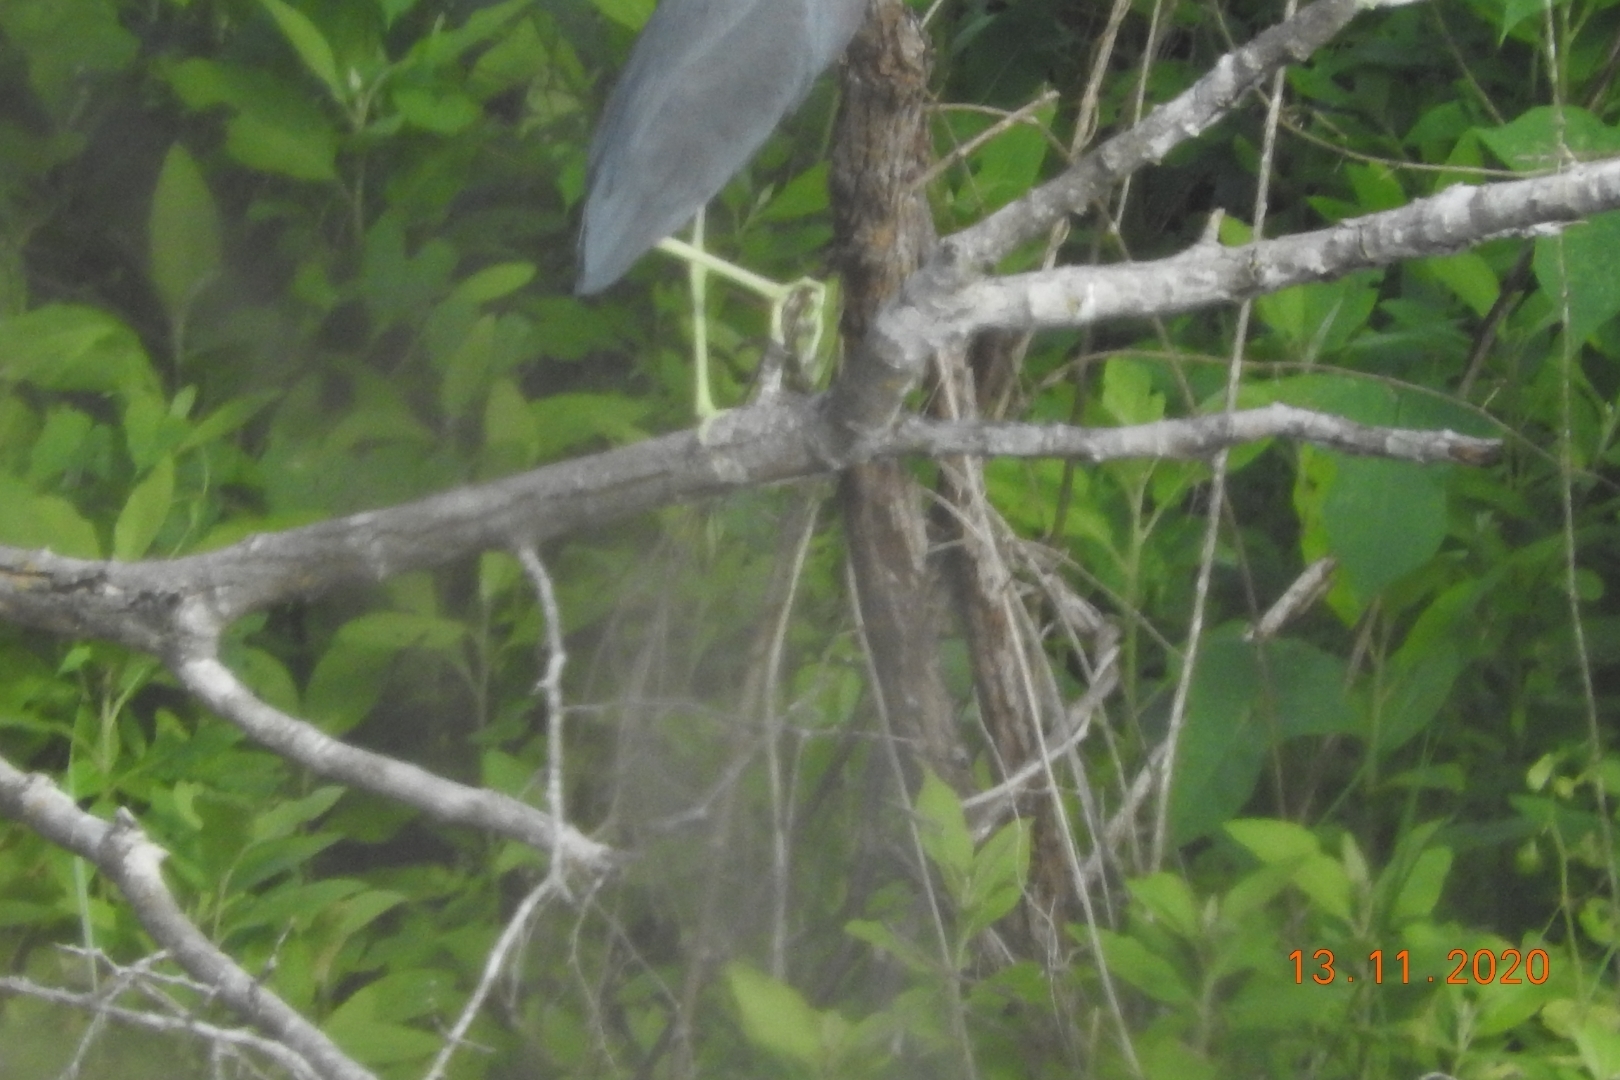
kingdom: Animalia
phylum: Chordata
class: Aves
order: Pelecaniformes
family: Ardeidae
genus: Egretta
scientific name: Egretta caerulea
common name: Little blue heron
